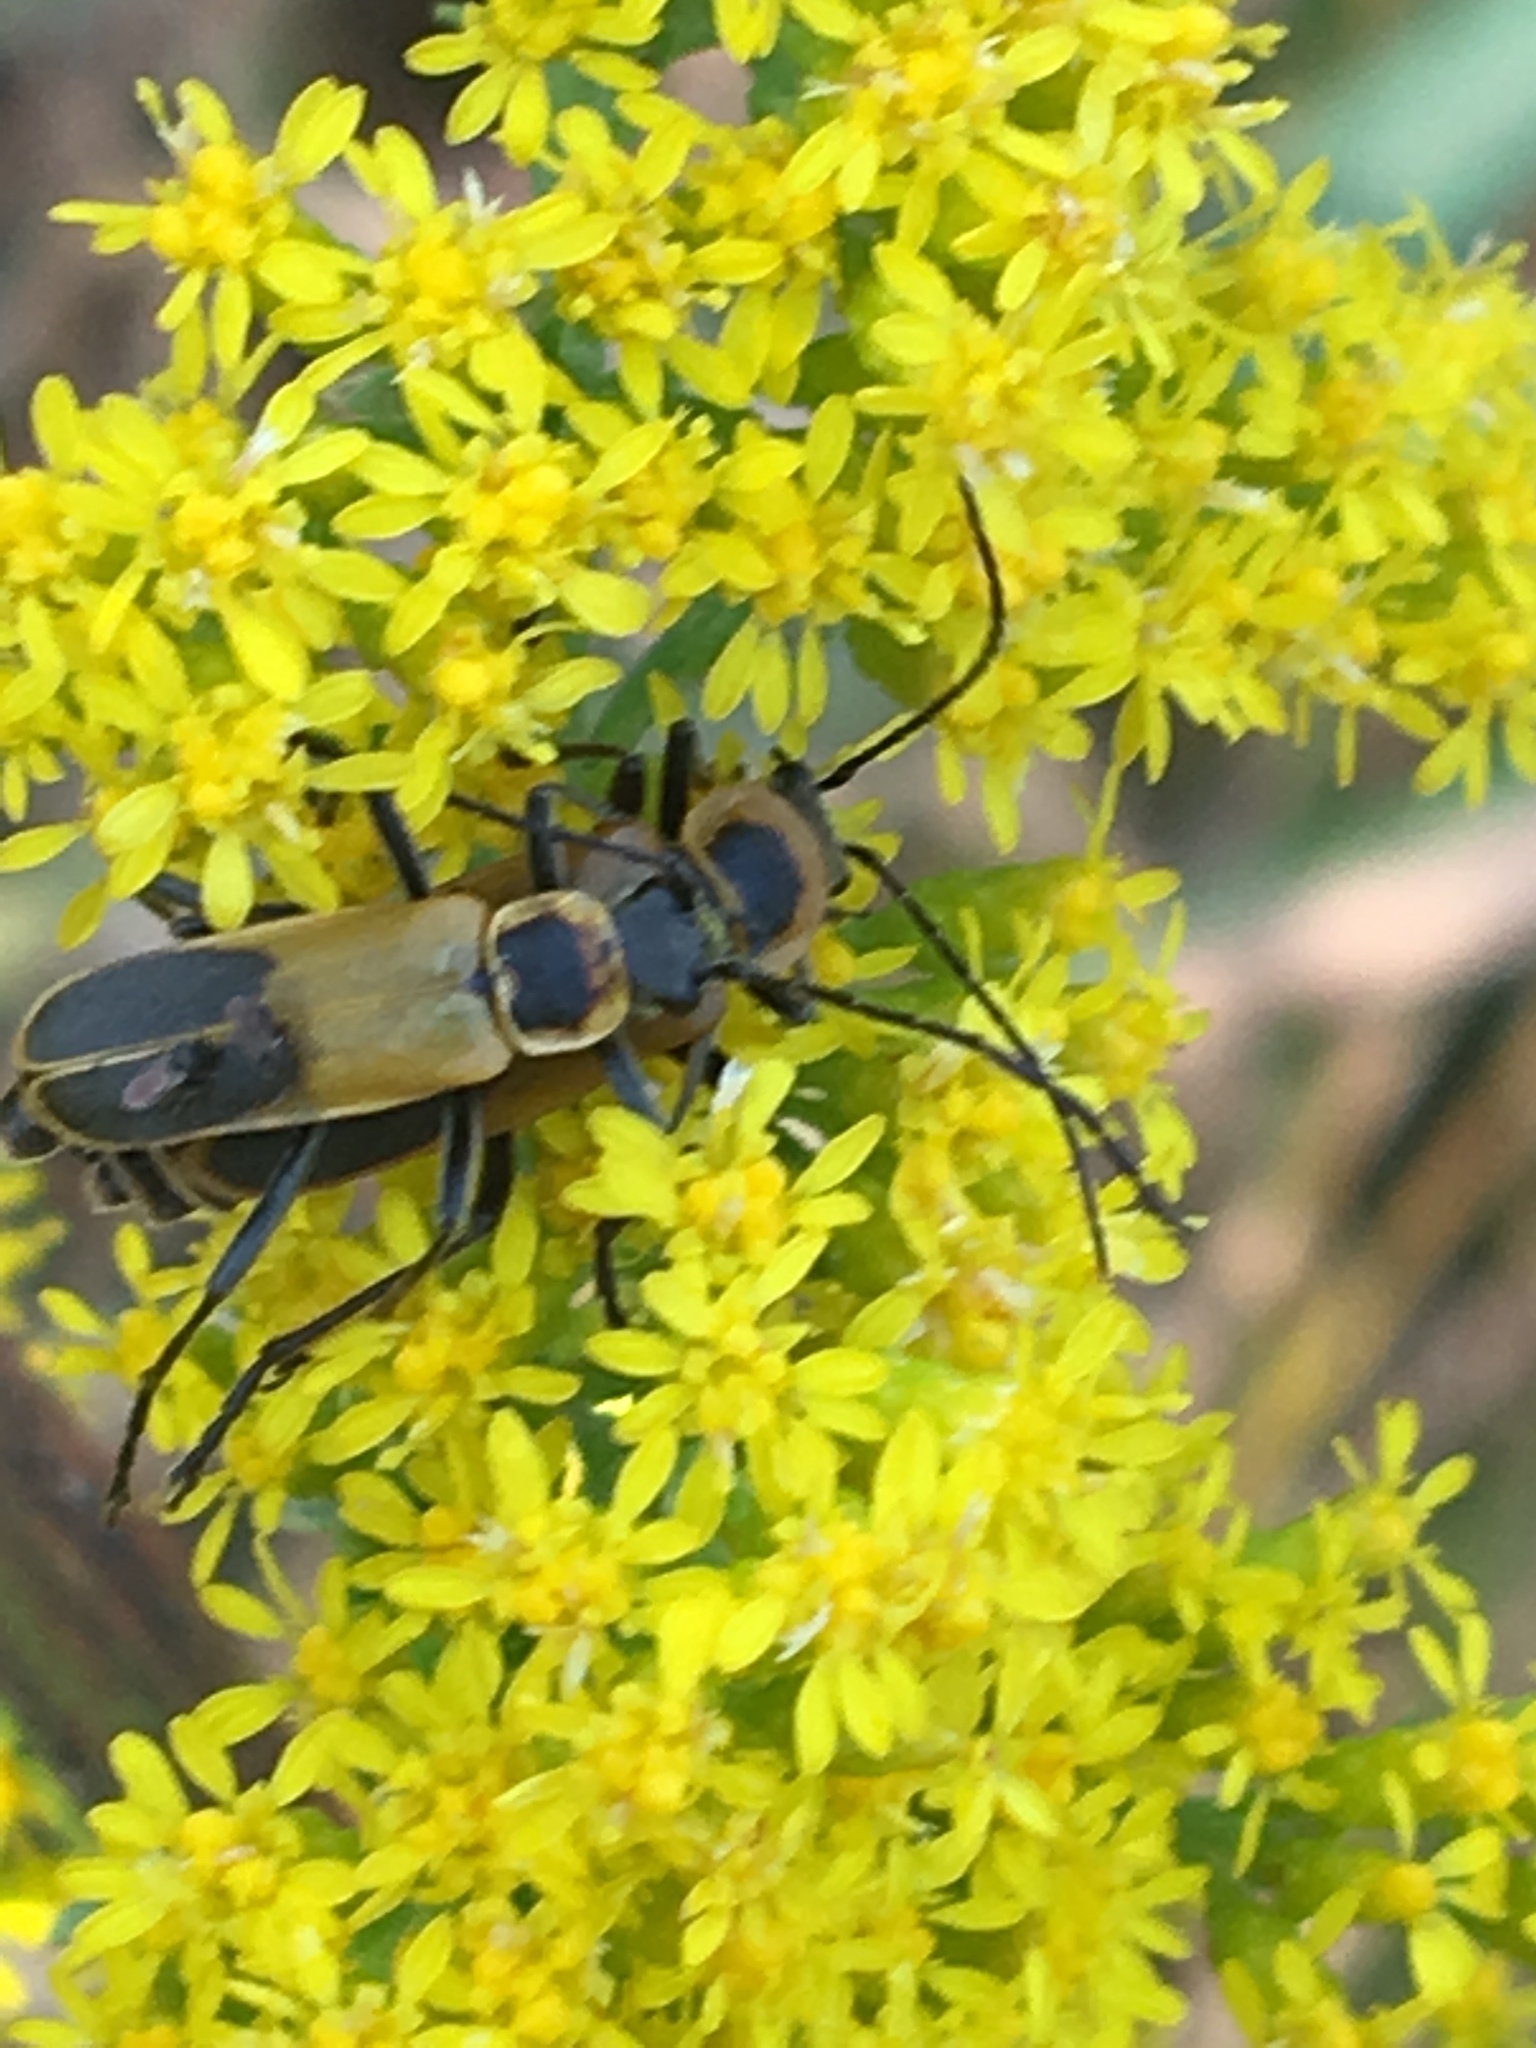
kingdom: Animalia
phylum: Arthropoda
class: Insecta
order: Coleoptera
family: Cantharidae
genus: Chauliognathus
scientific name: Chauliognathus pensylvanicus
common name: Goldenrod soldier beetle
